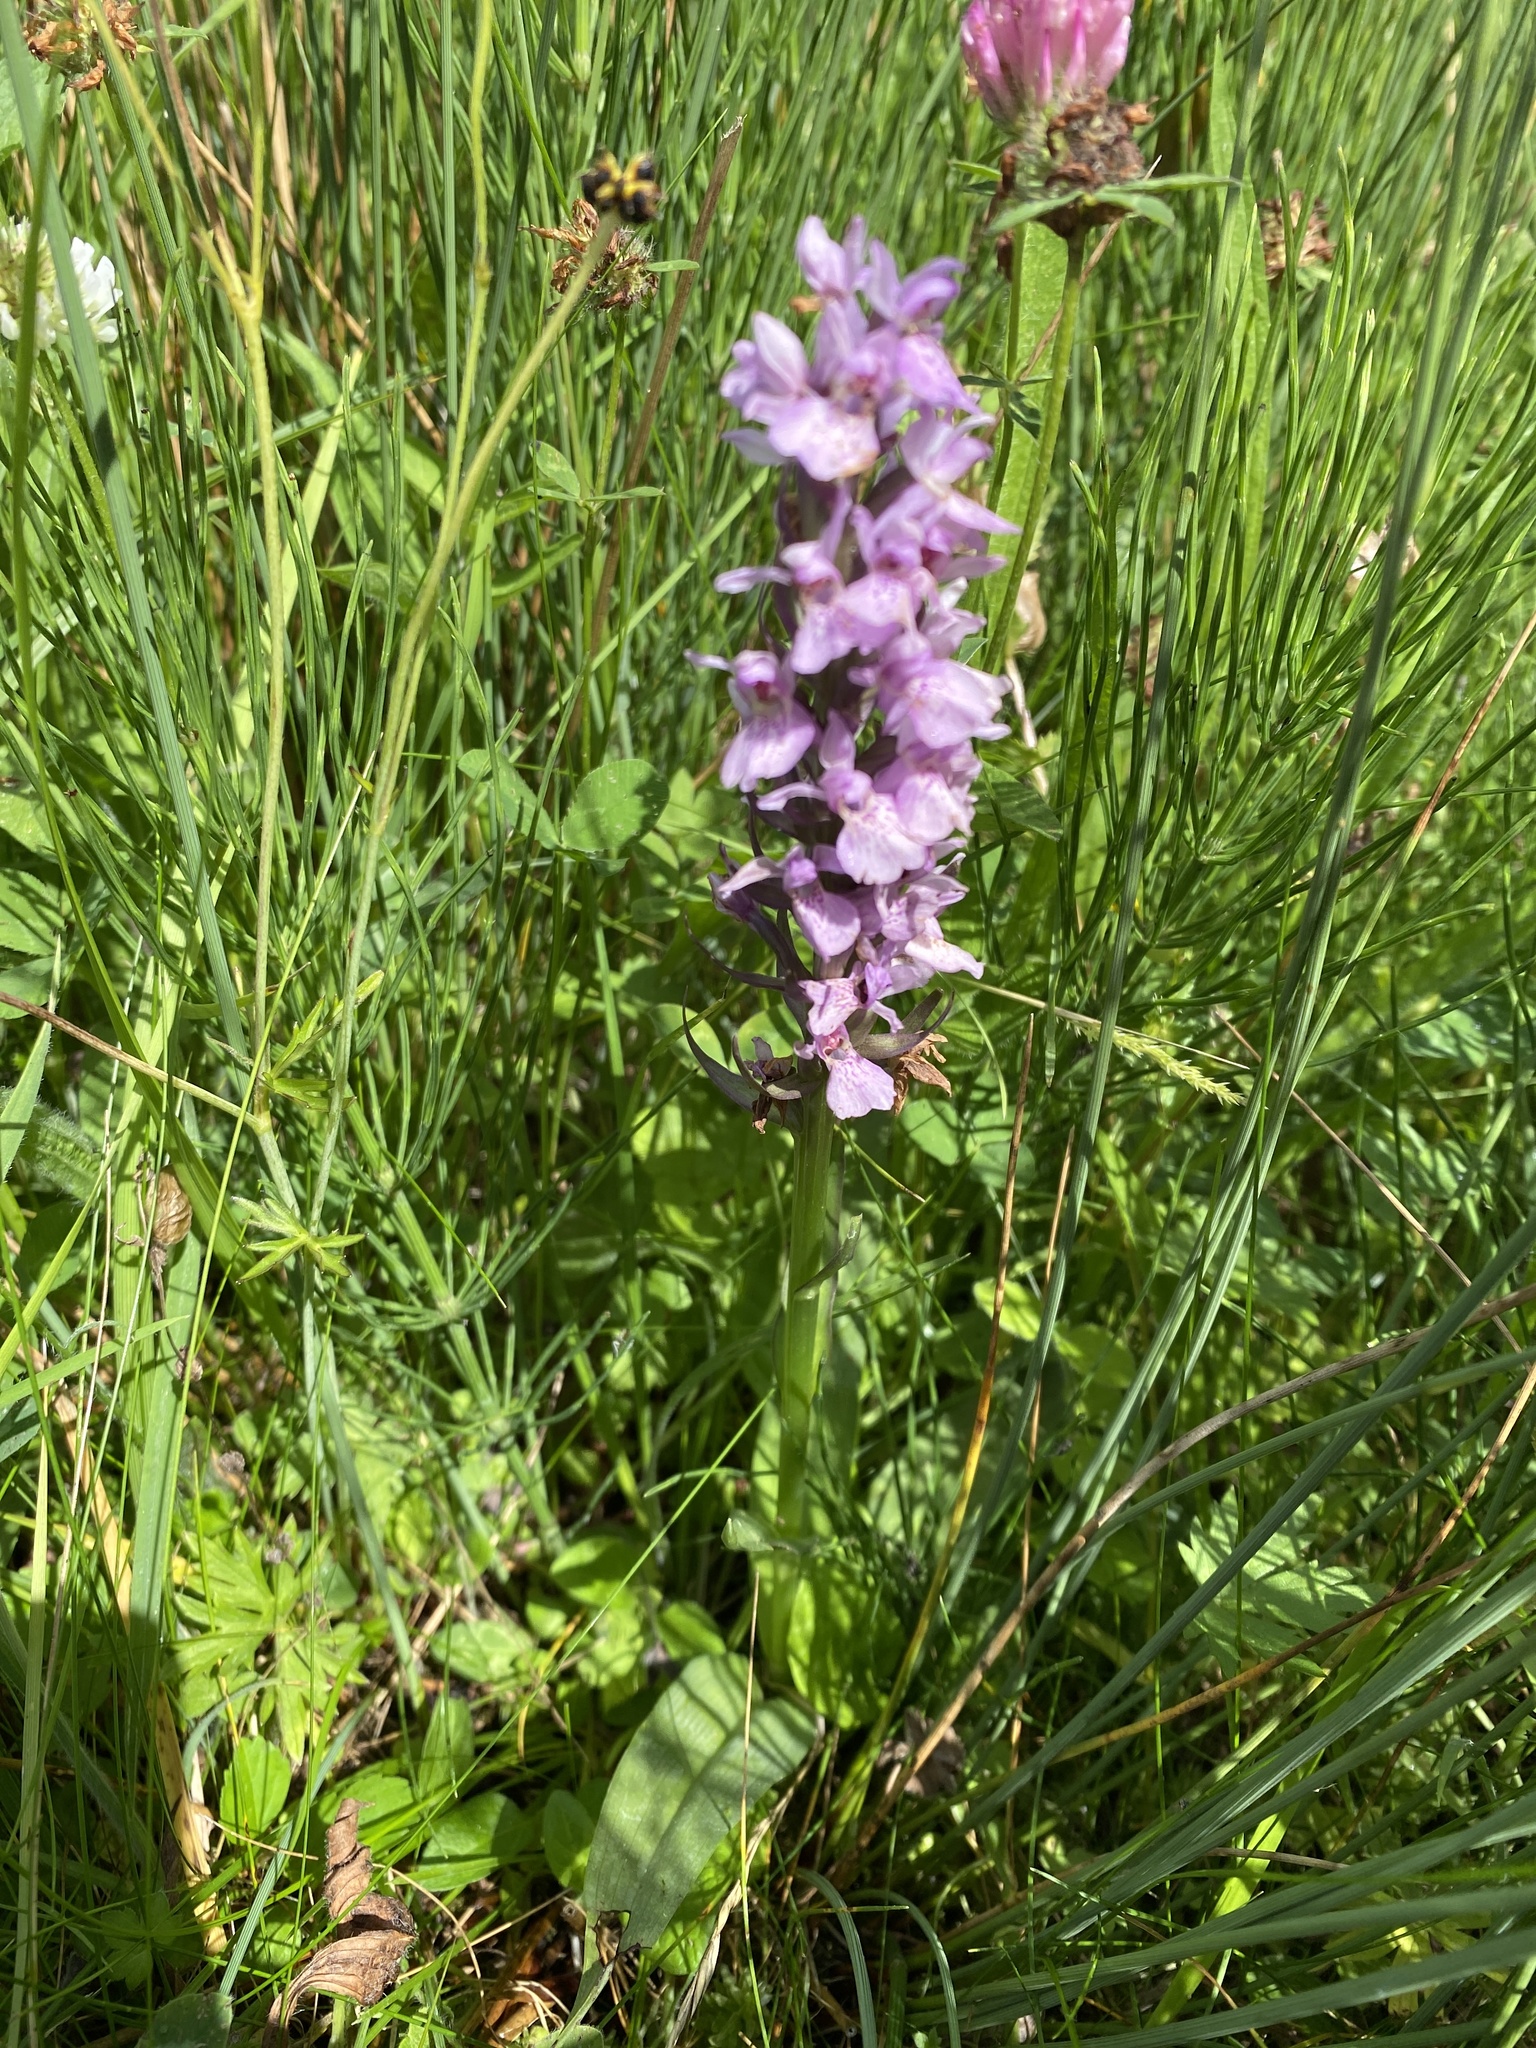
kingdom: Plantae
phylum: Tracheophyta
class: Liliopsida
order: Asparagales
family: Orchidaceae
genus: Dactylorhiza
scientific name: Dactylorhiza majalis
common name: Marsh orchid
